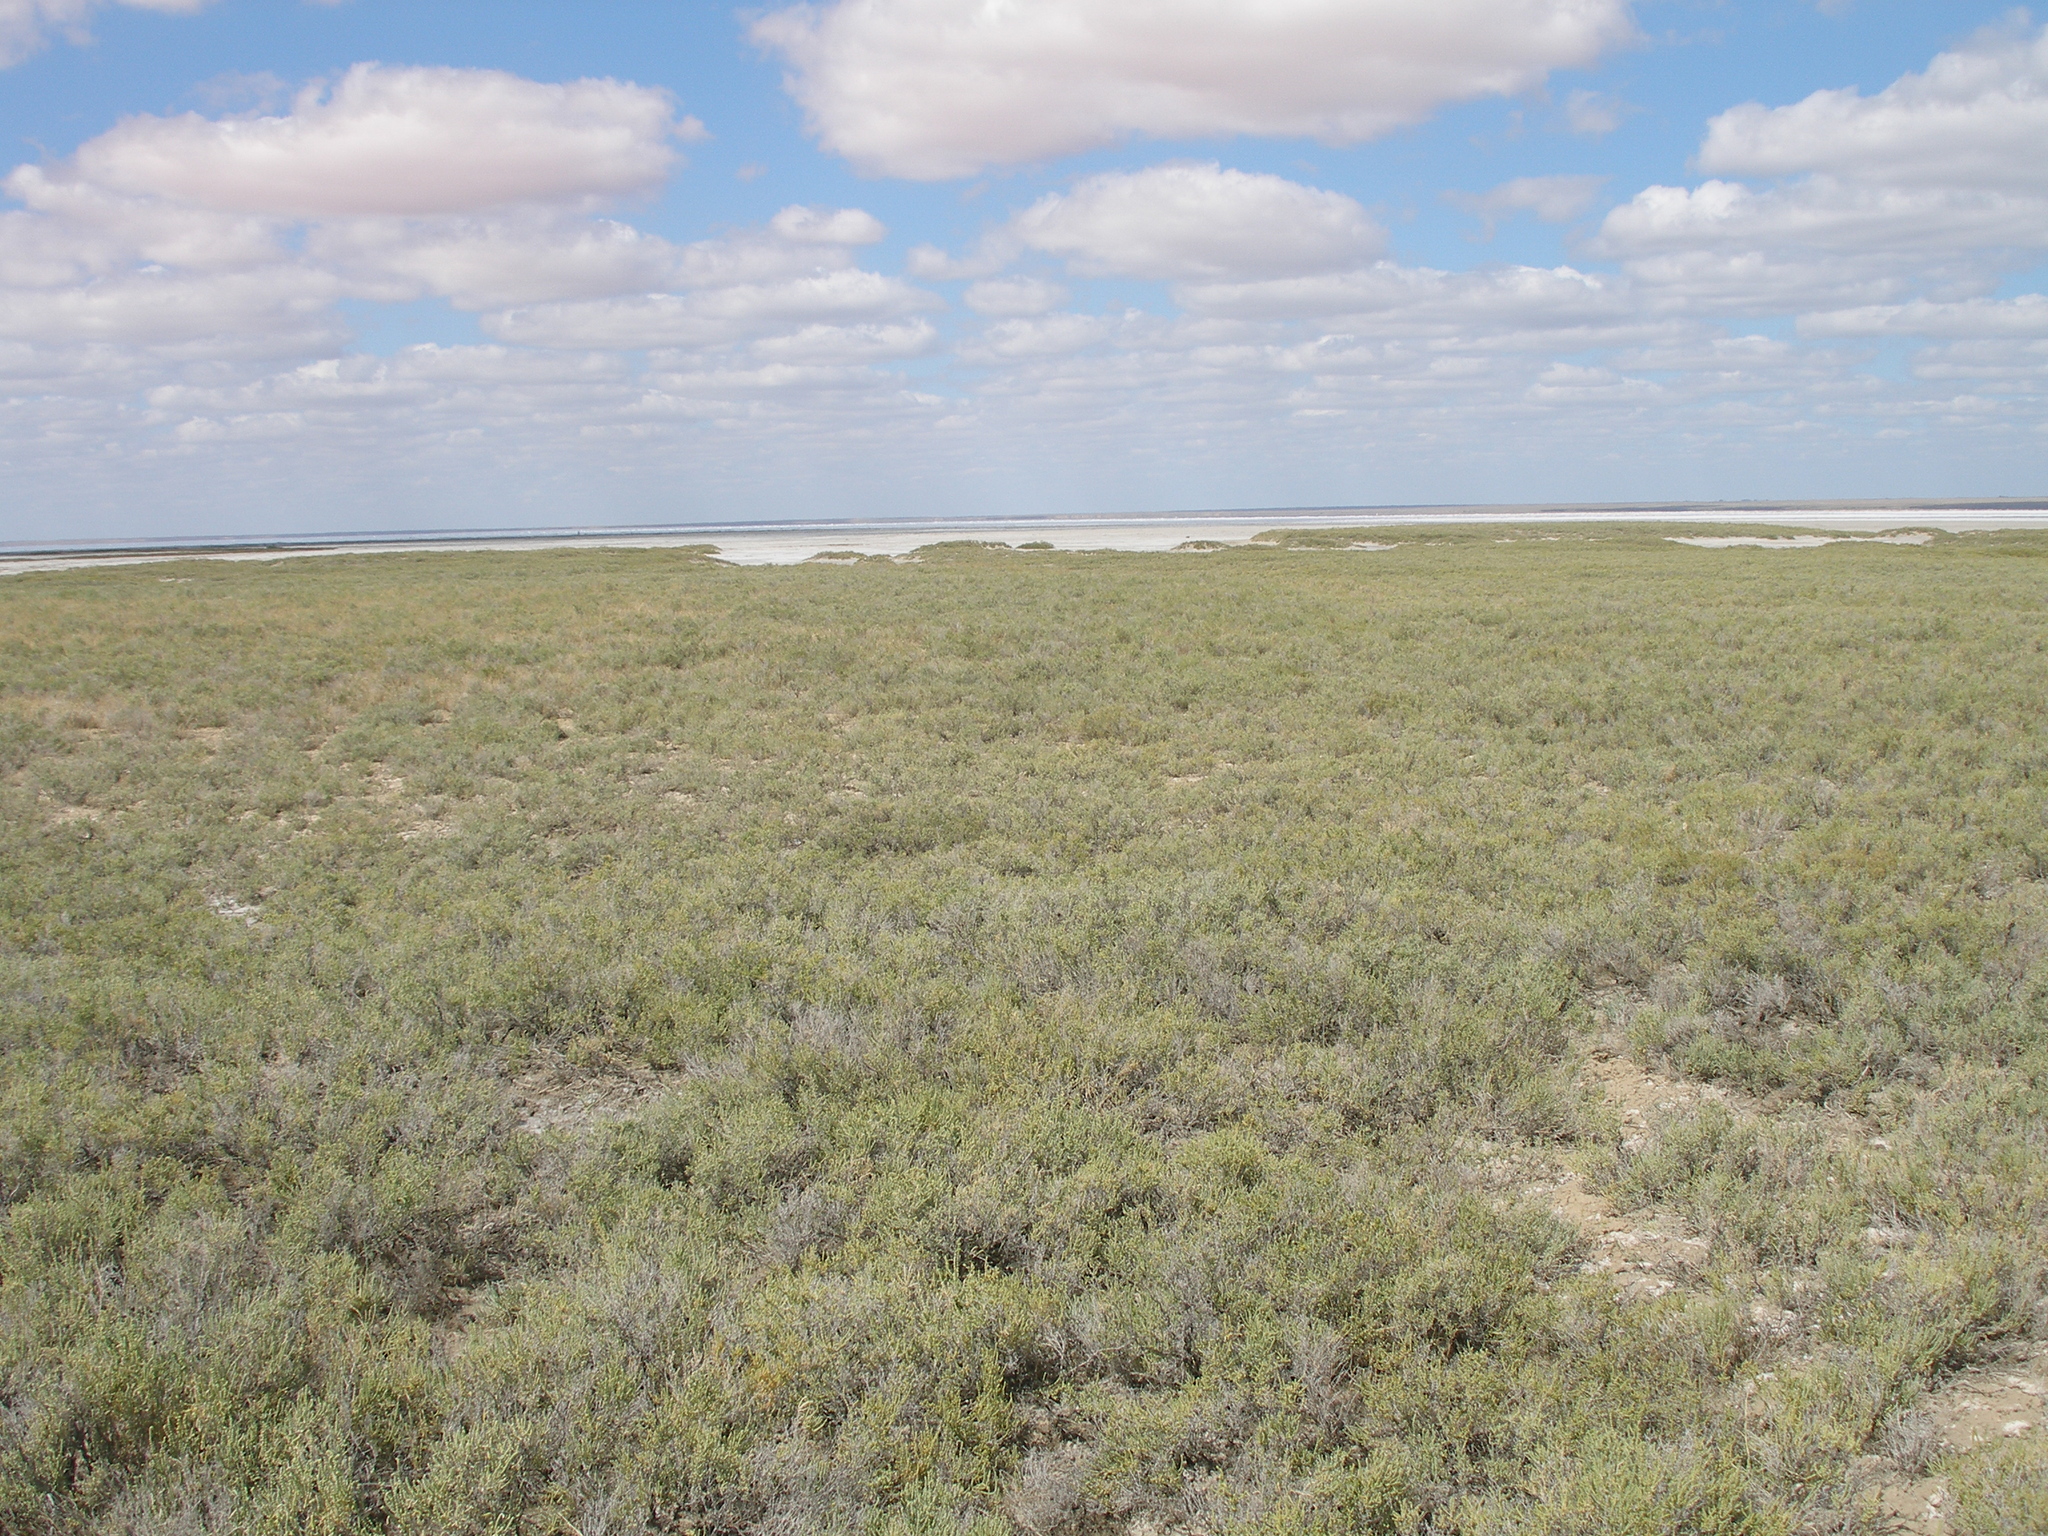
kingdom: Plantae
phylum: Tracheophyta
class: Magnoliopsida
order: Caryophyllales
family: Amaranthaceae
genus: Halocnemum
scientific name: Halocnemum strobilaceum
